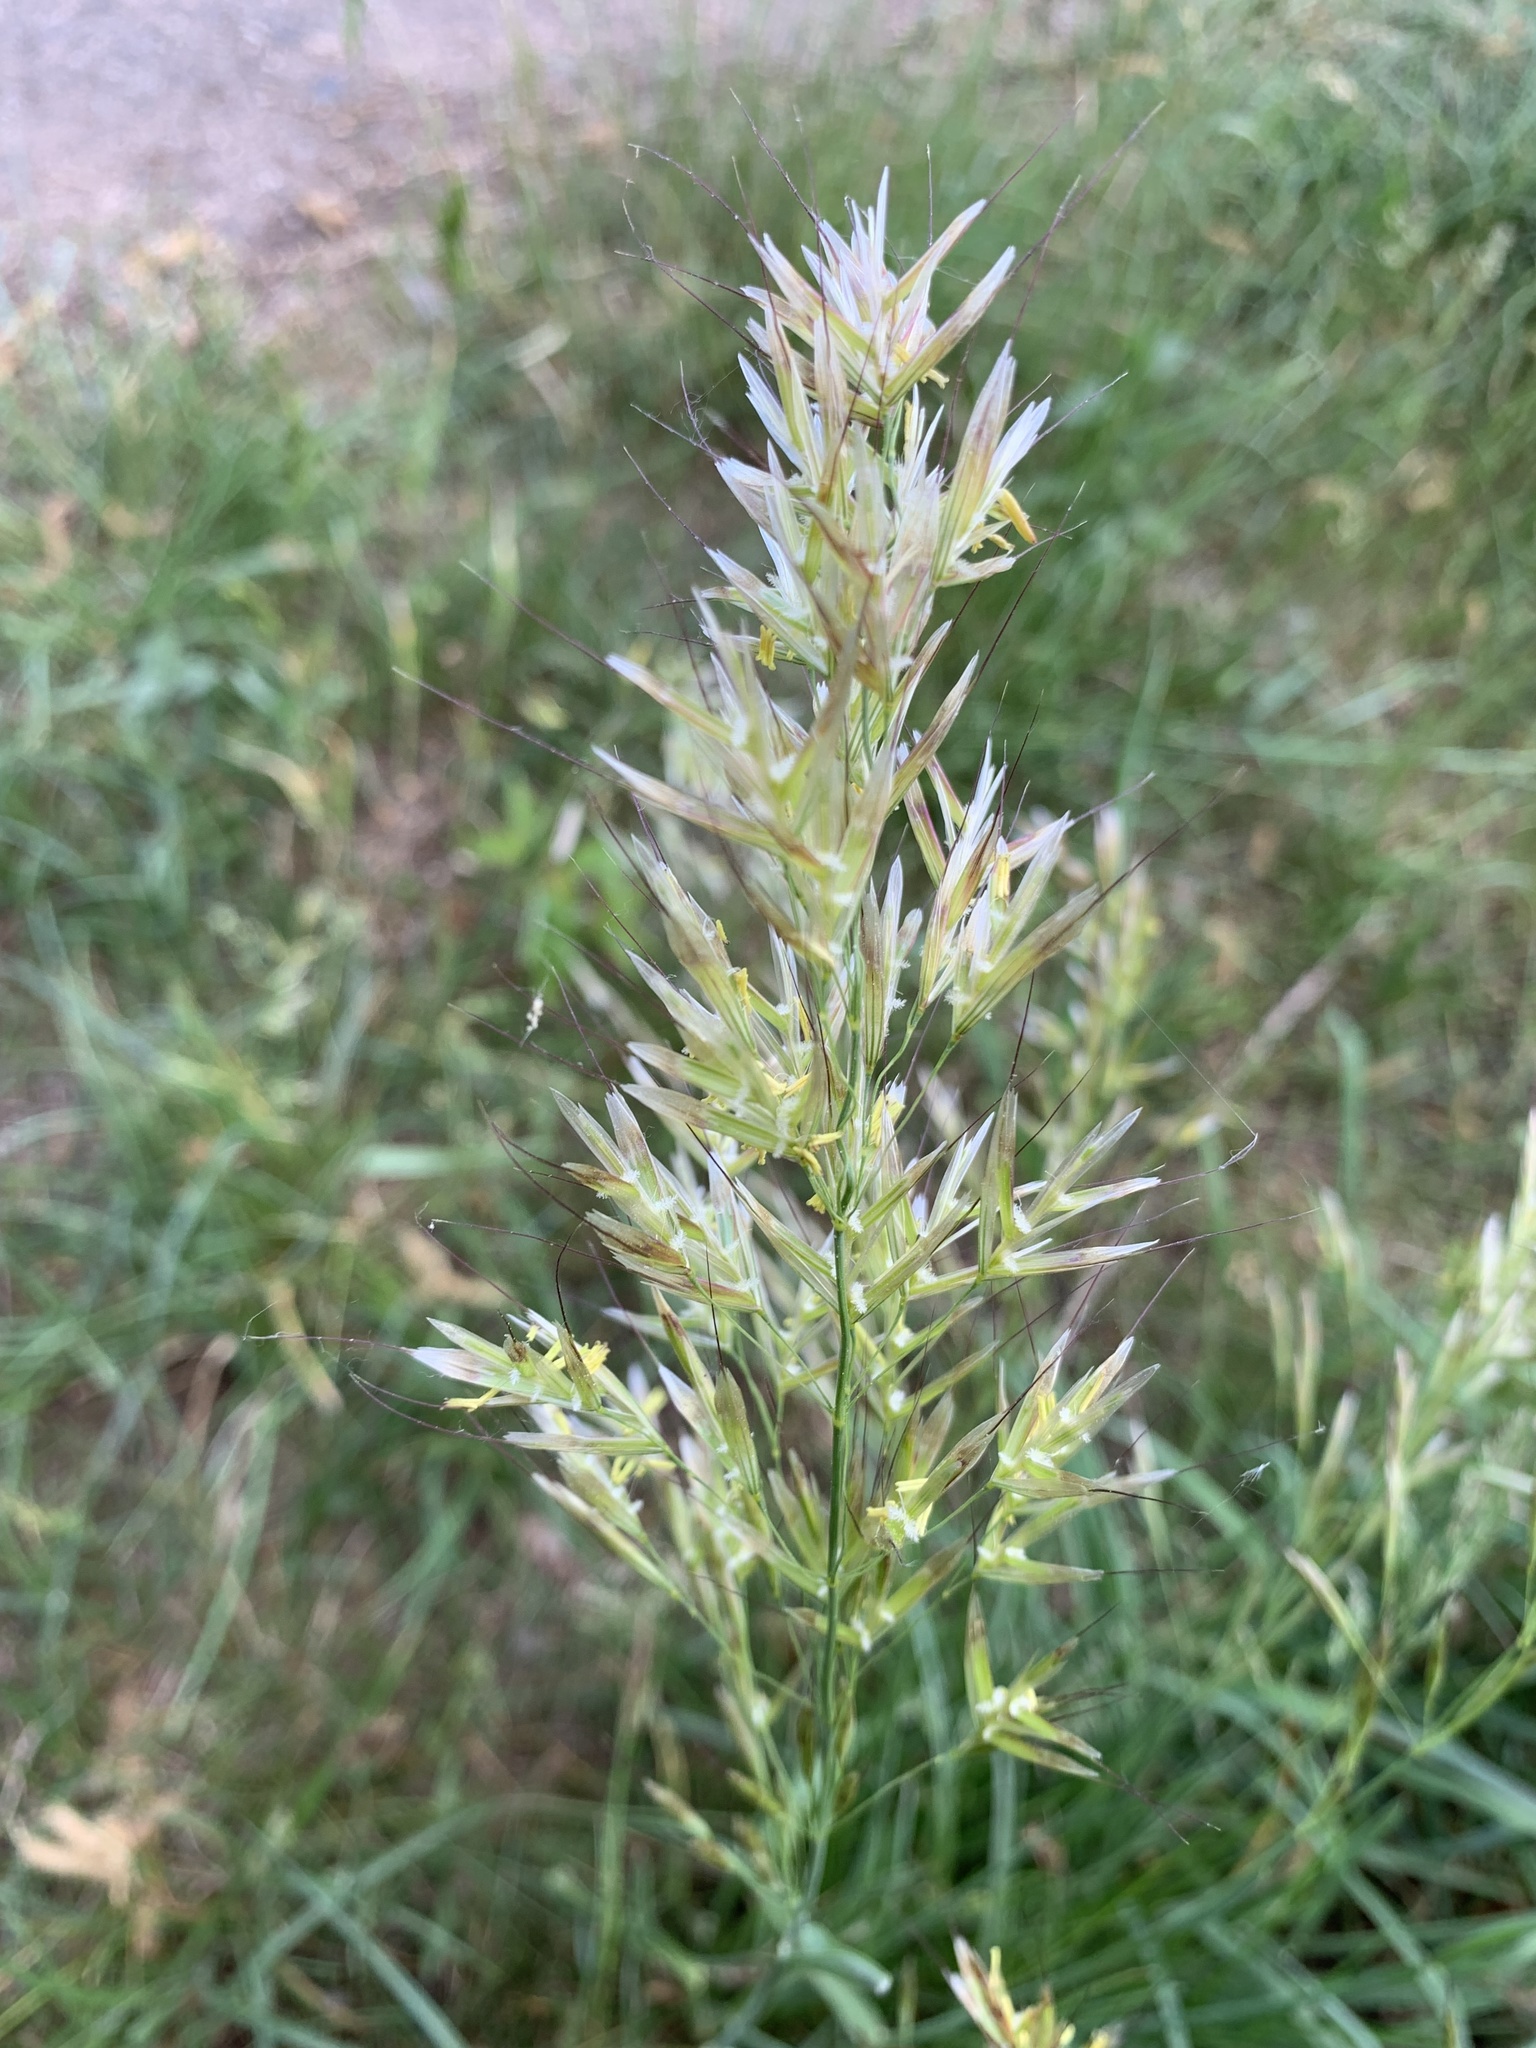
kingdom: Plantae
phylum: Tracheophyta
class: Liliopsida
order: Poales
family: Poaceae
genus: Avenula
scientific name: Avenula pubescens
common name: Downy alpine oatgrass
